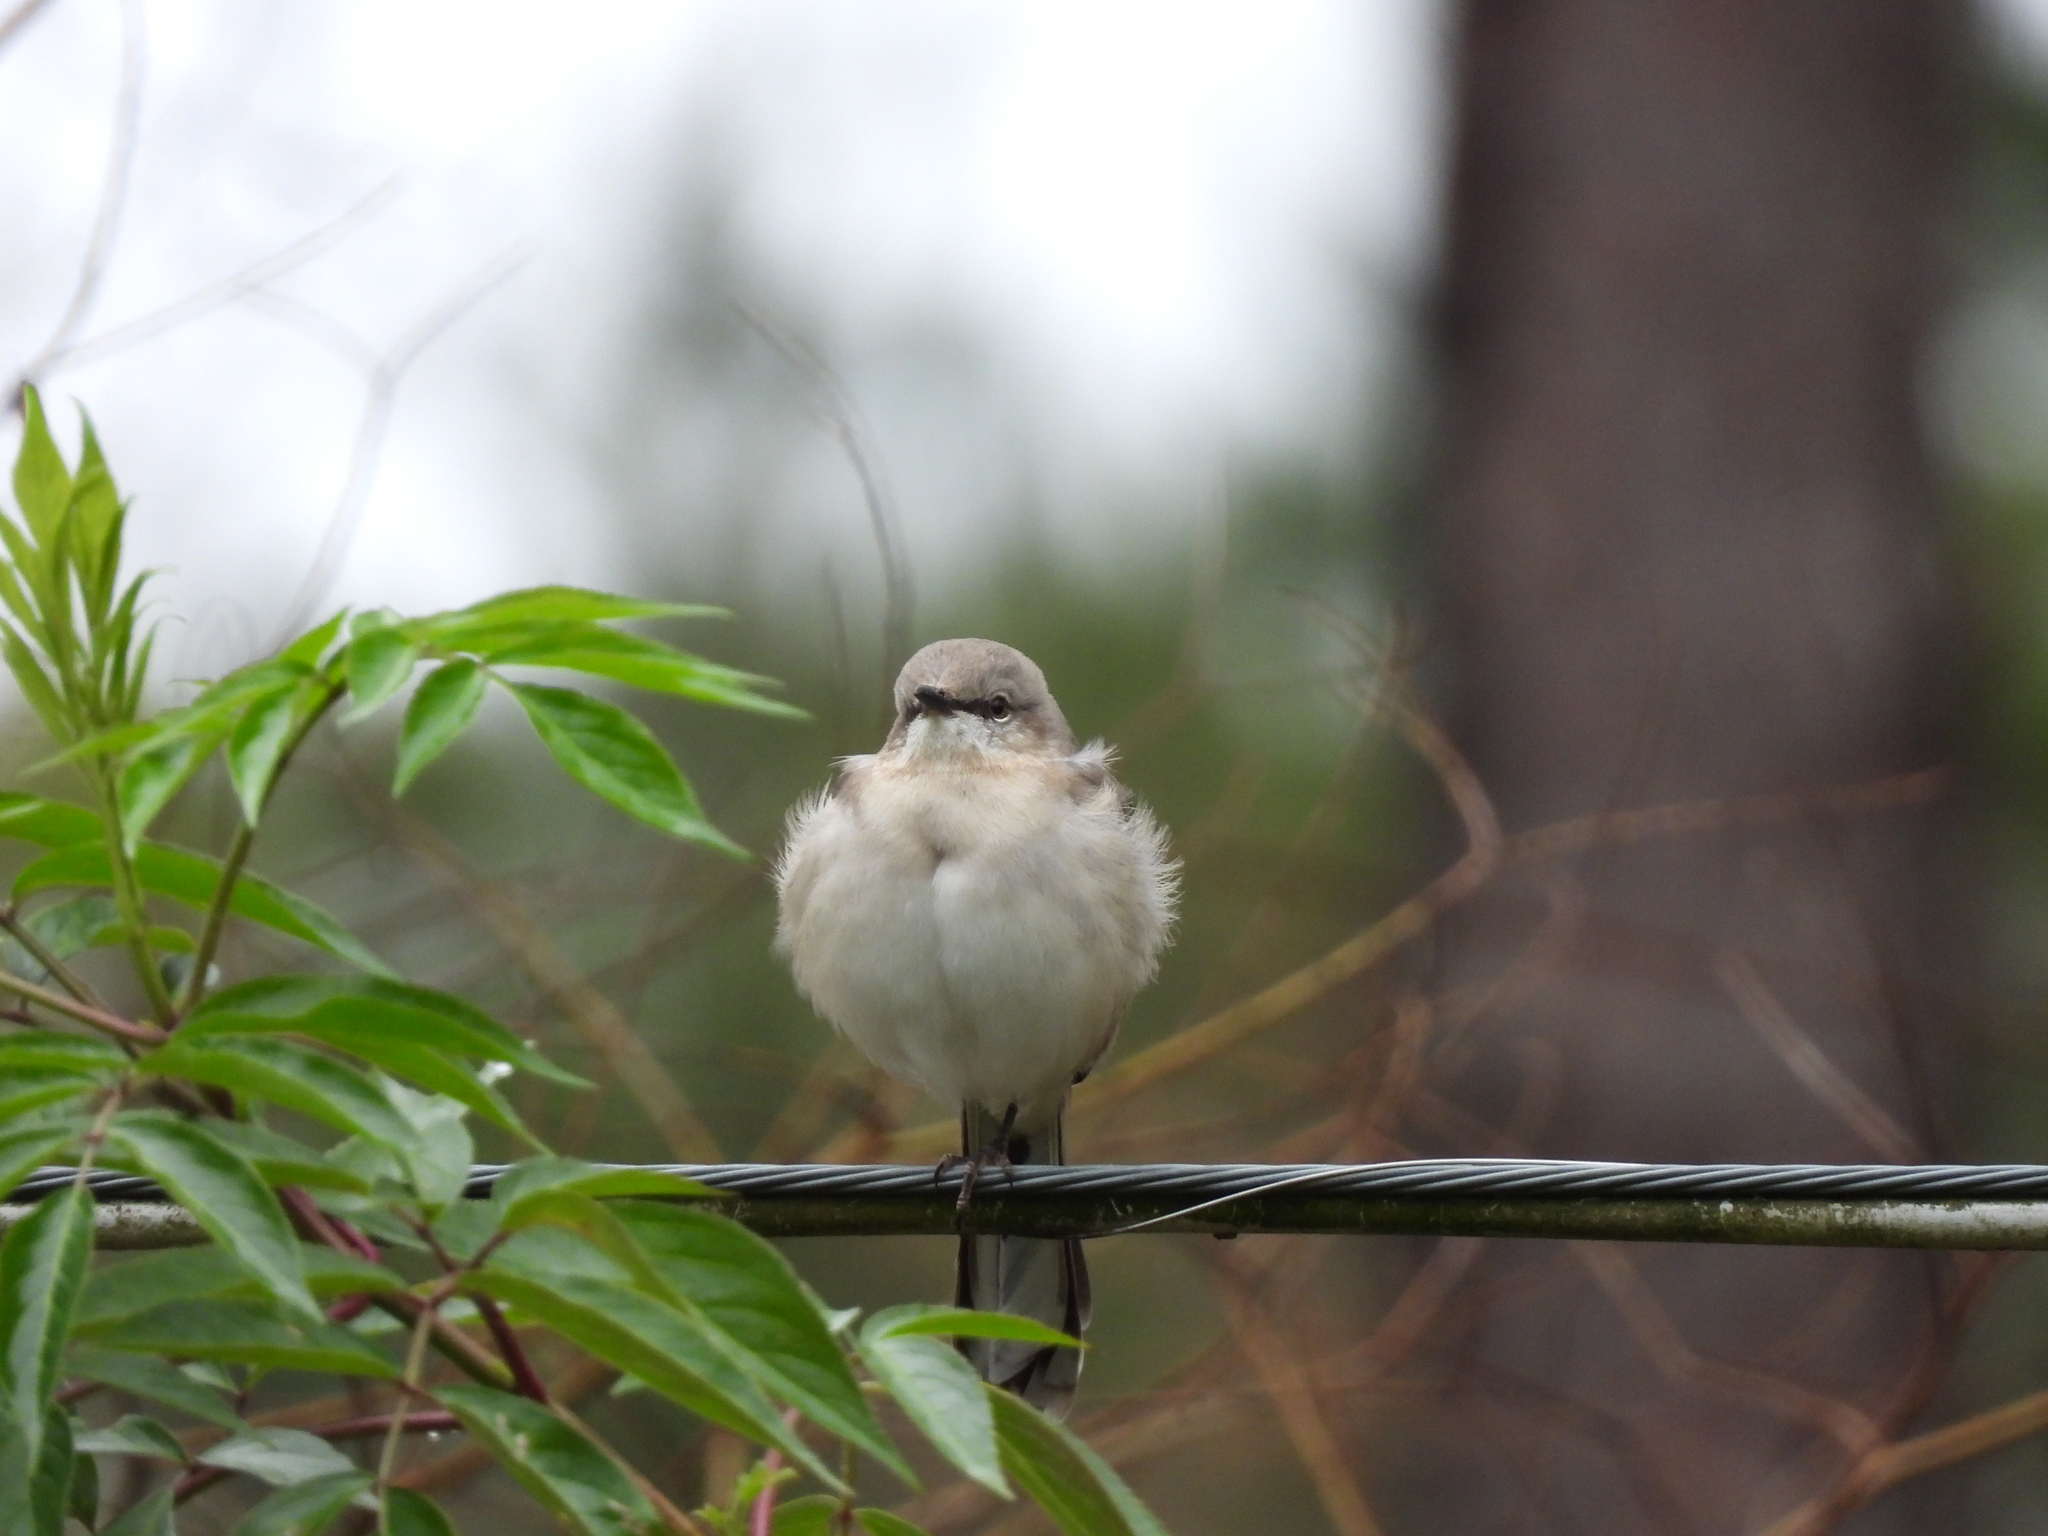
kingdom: Animalia
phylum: Chordata
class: Aves
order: Passeriformes
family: Mimidae
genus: Mimus
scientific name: Mimus polyglottos
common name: Northern mockingbird
